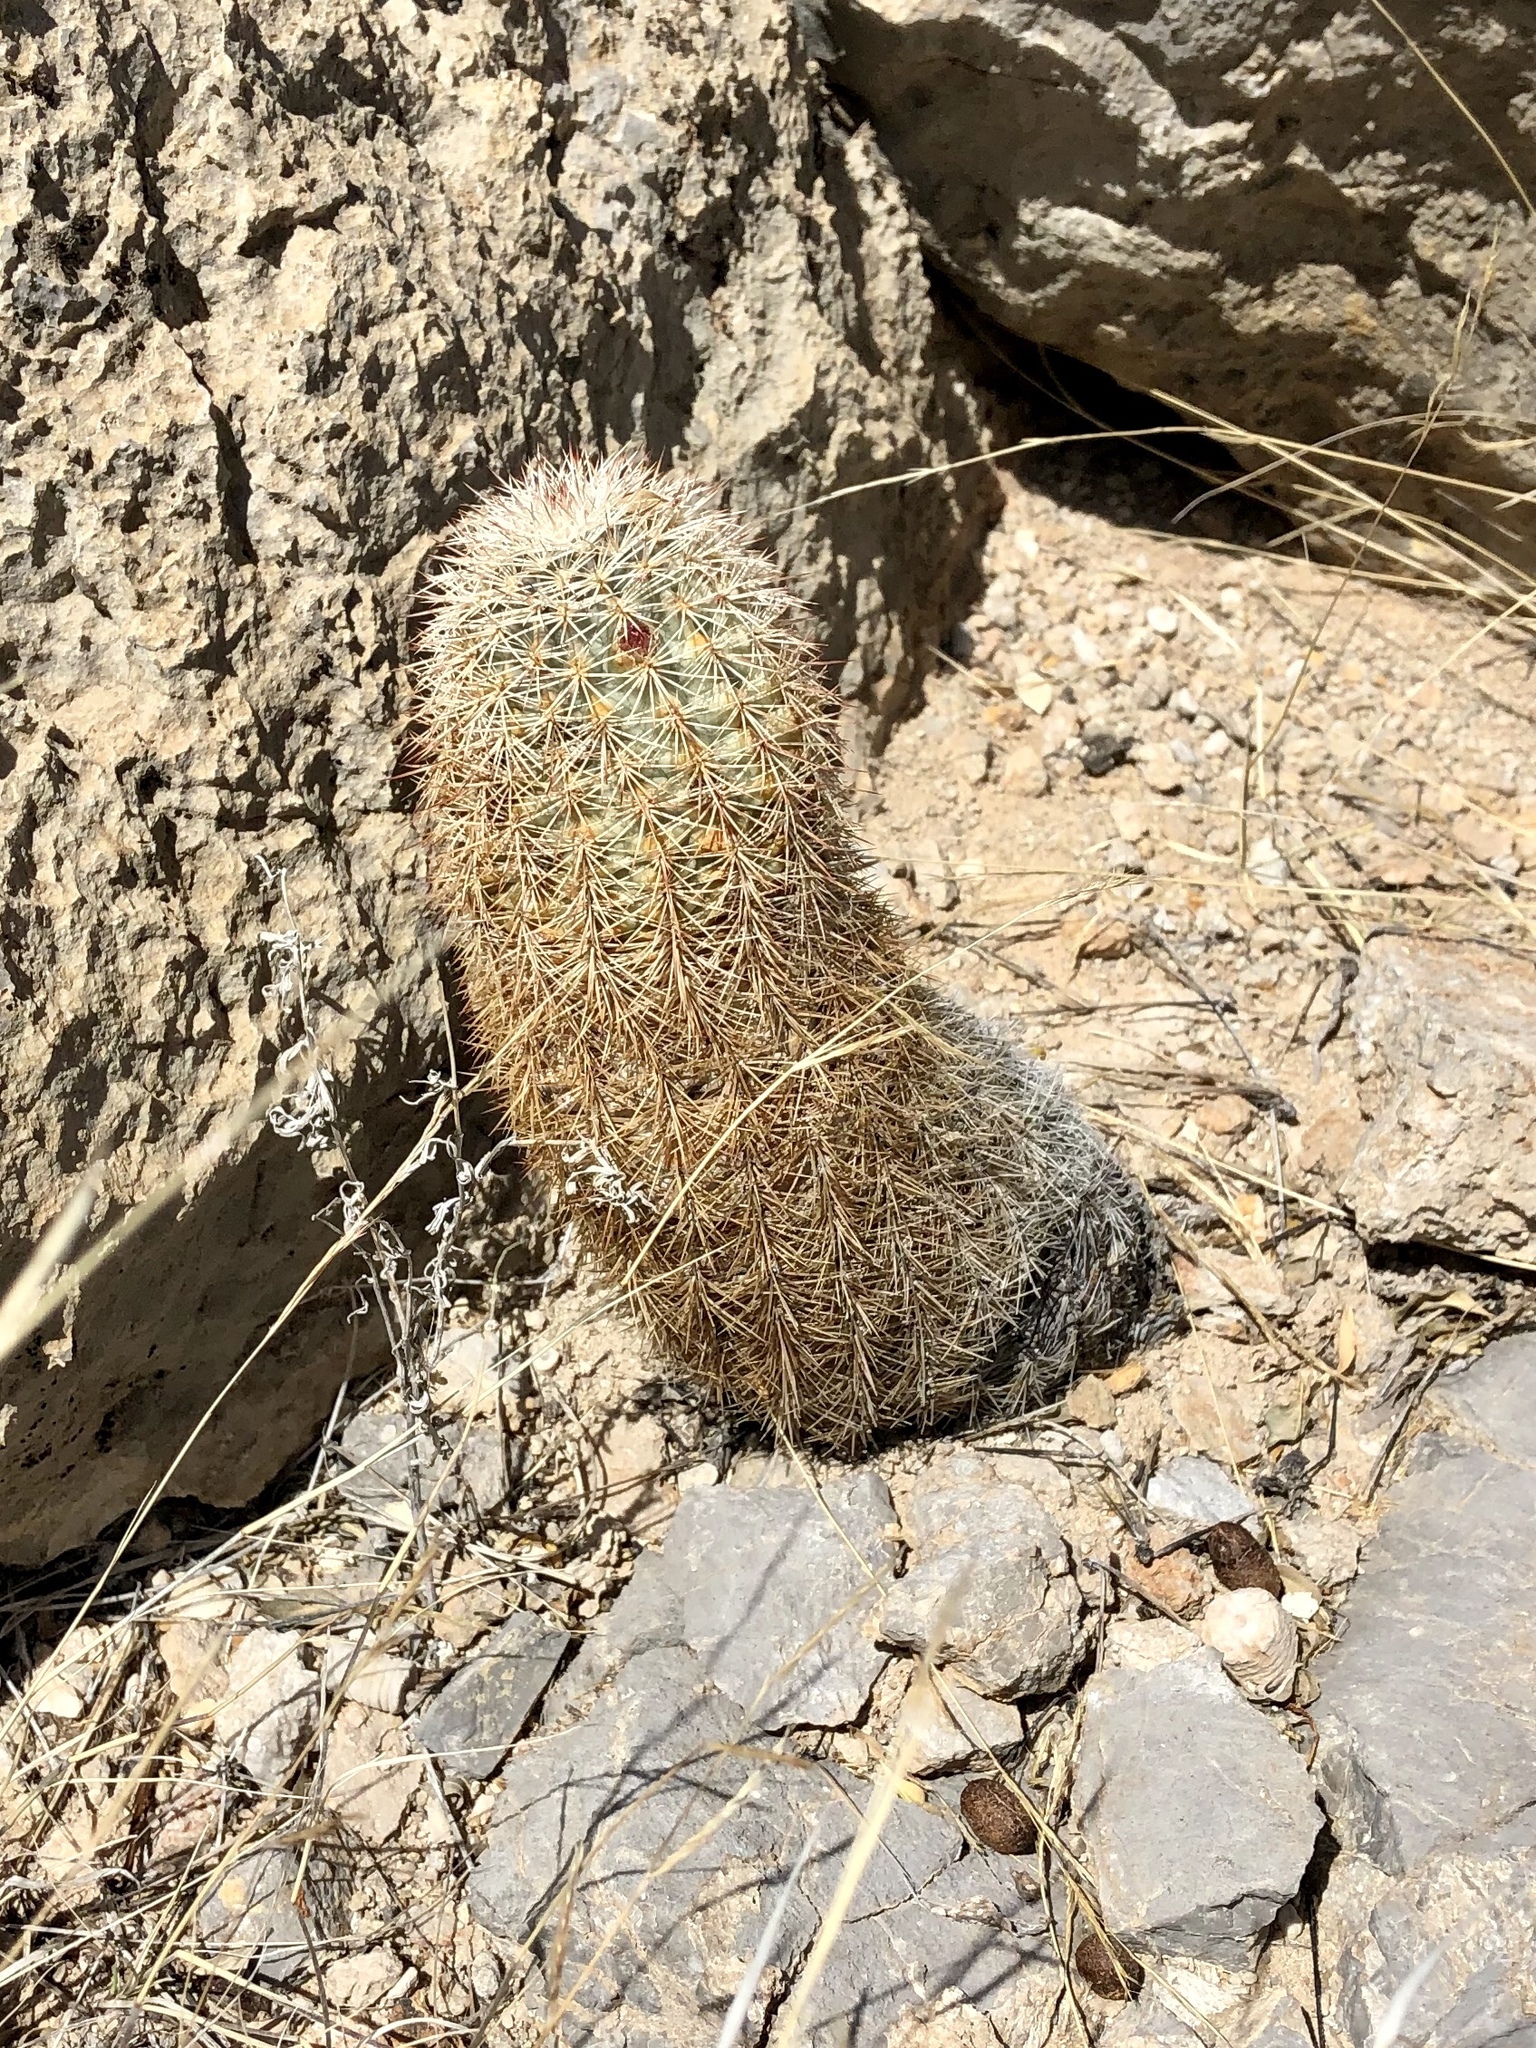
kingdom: Plantae
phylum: Tracheophyta
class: Magnoliopsida
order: Caryophyllales
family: Cactaceae
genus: Echinocereus
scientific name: Echinocereus dasyacanthus
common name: Spiny hedgehog cactus
